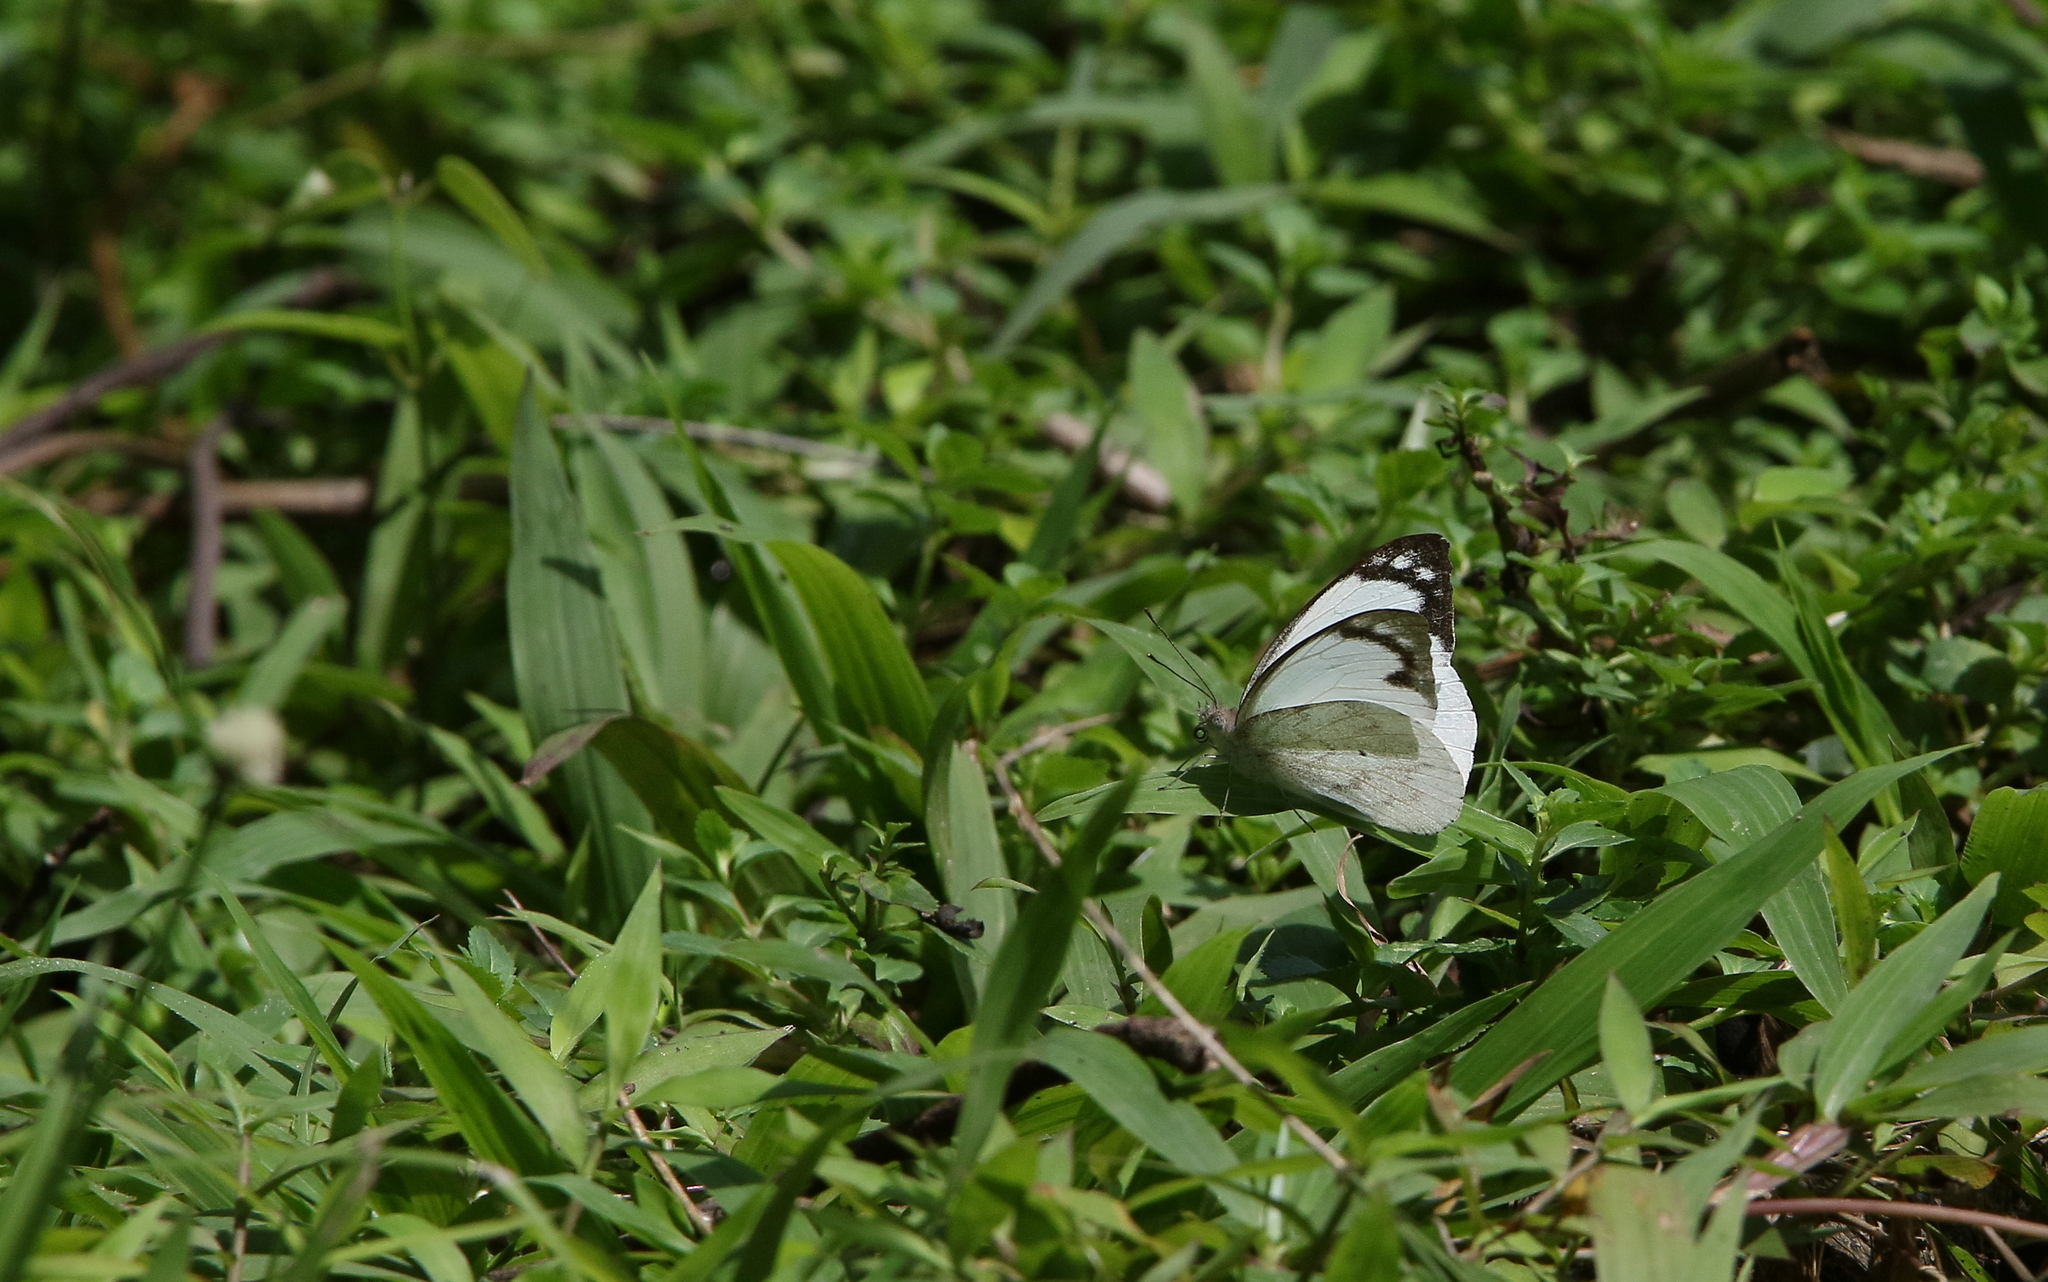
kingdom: Animalia
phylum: Arthropoda
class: Insecta
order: Lepidoptera
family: Pieridae
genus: Appias
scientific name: Appias indra
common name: Plain puffin
